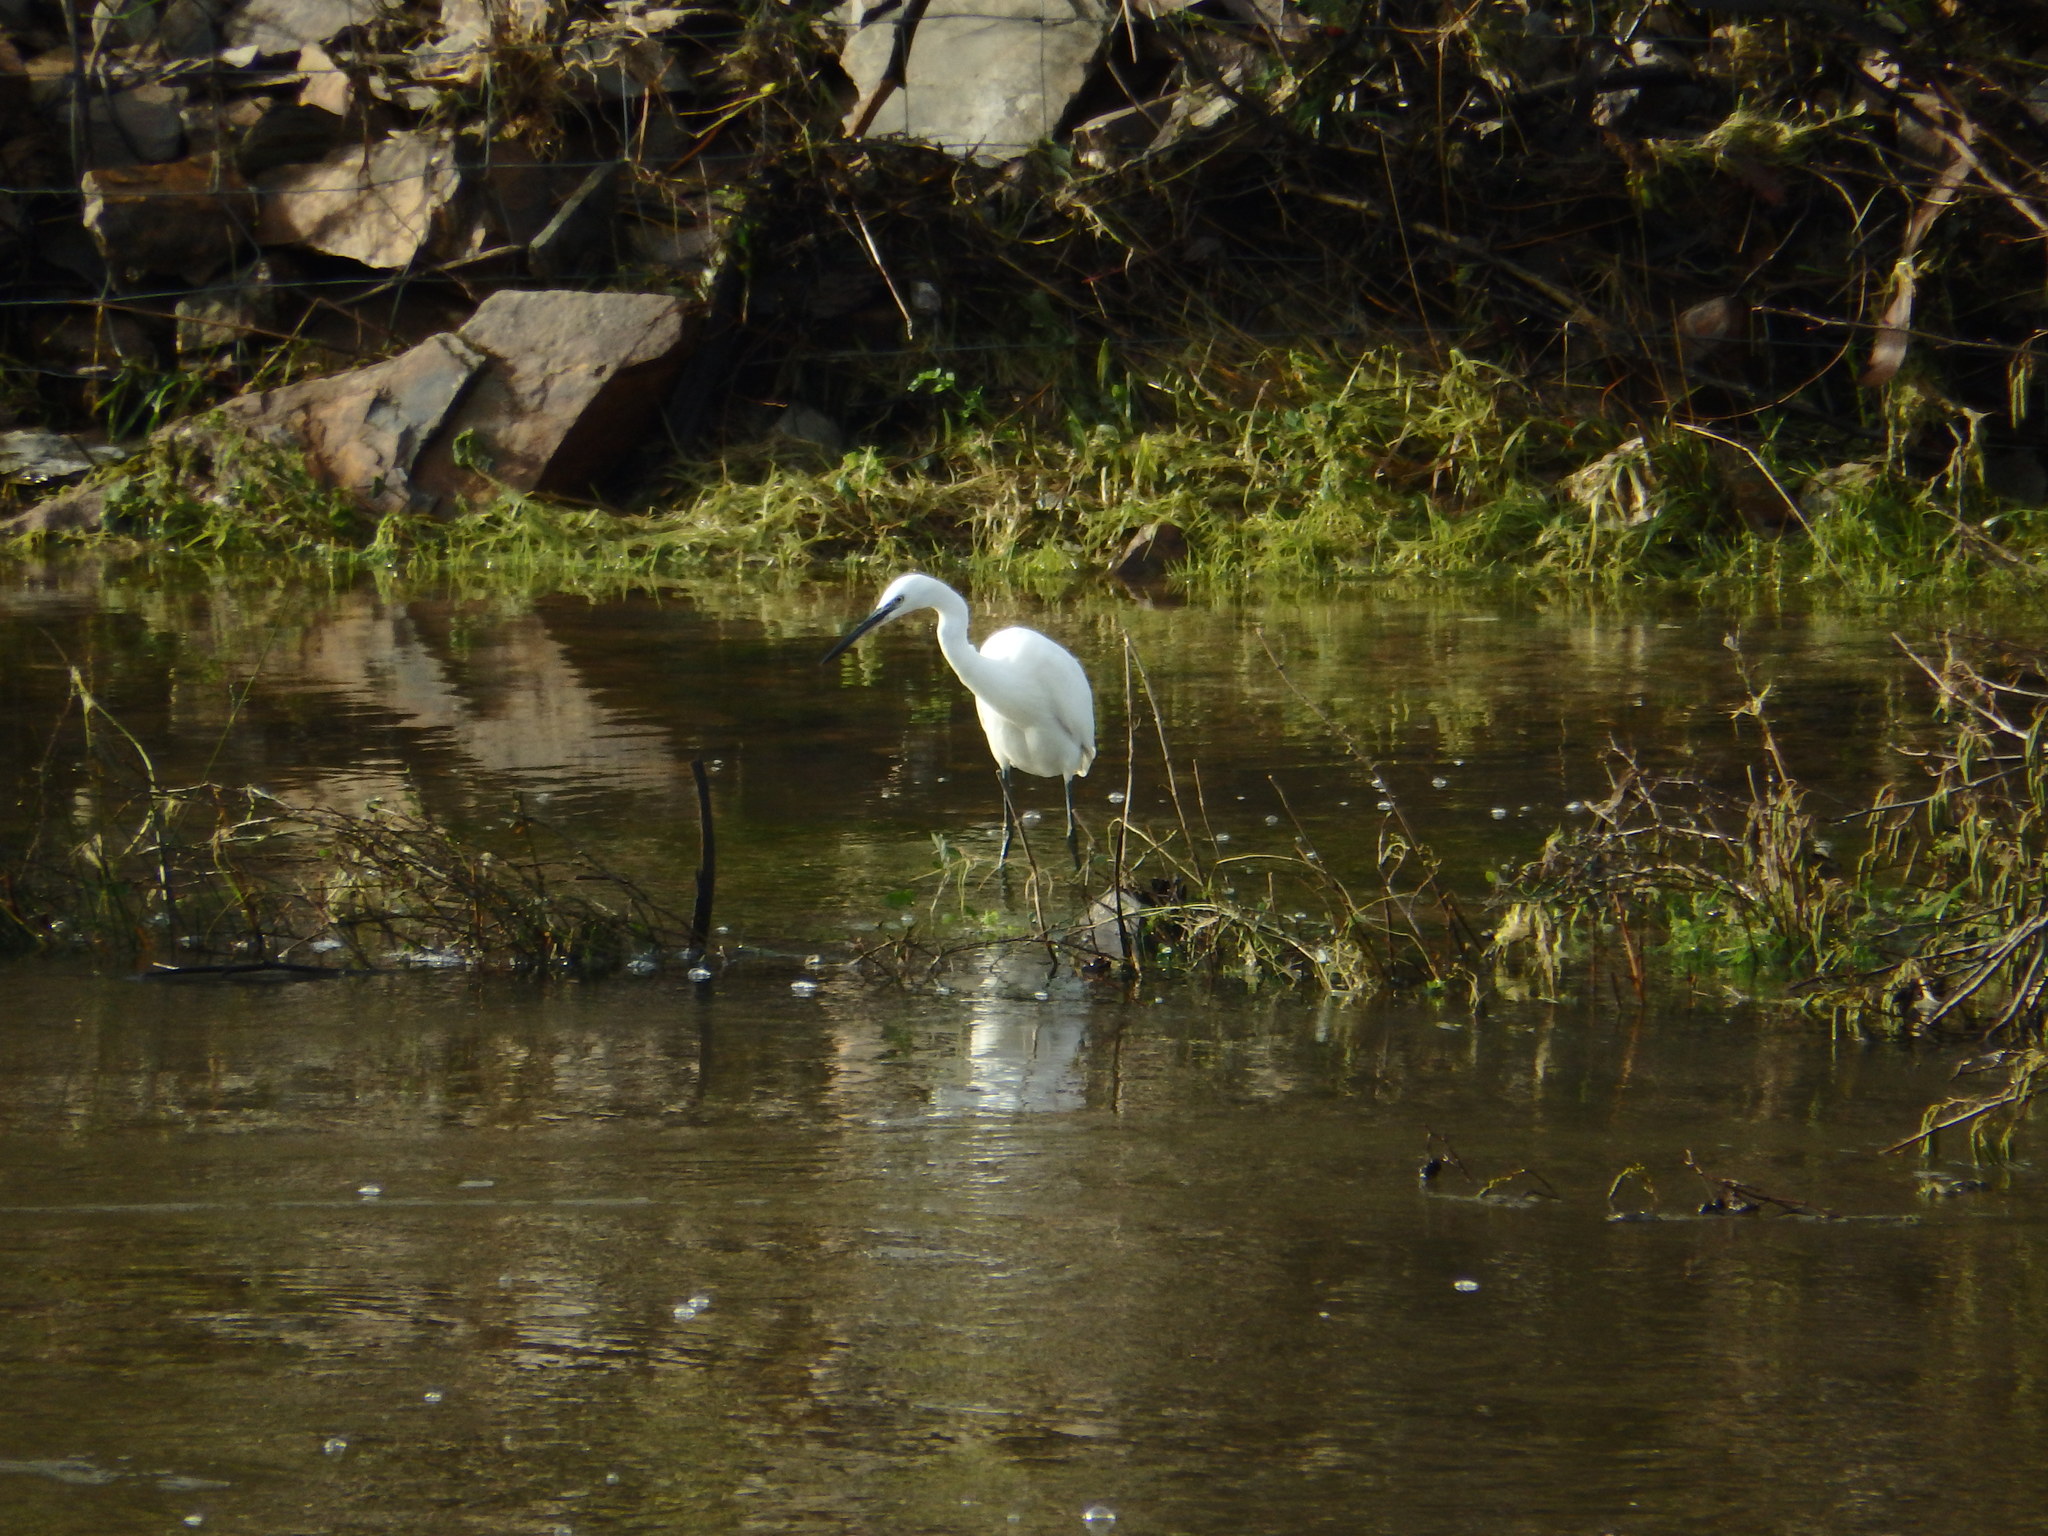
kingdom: Animalia
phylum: Chordata
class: Aves
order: Pelecaniformes
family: Ardeidae
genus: Egretta
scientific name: Egretta garzetta
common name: Little egret
